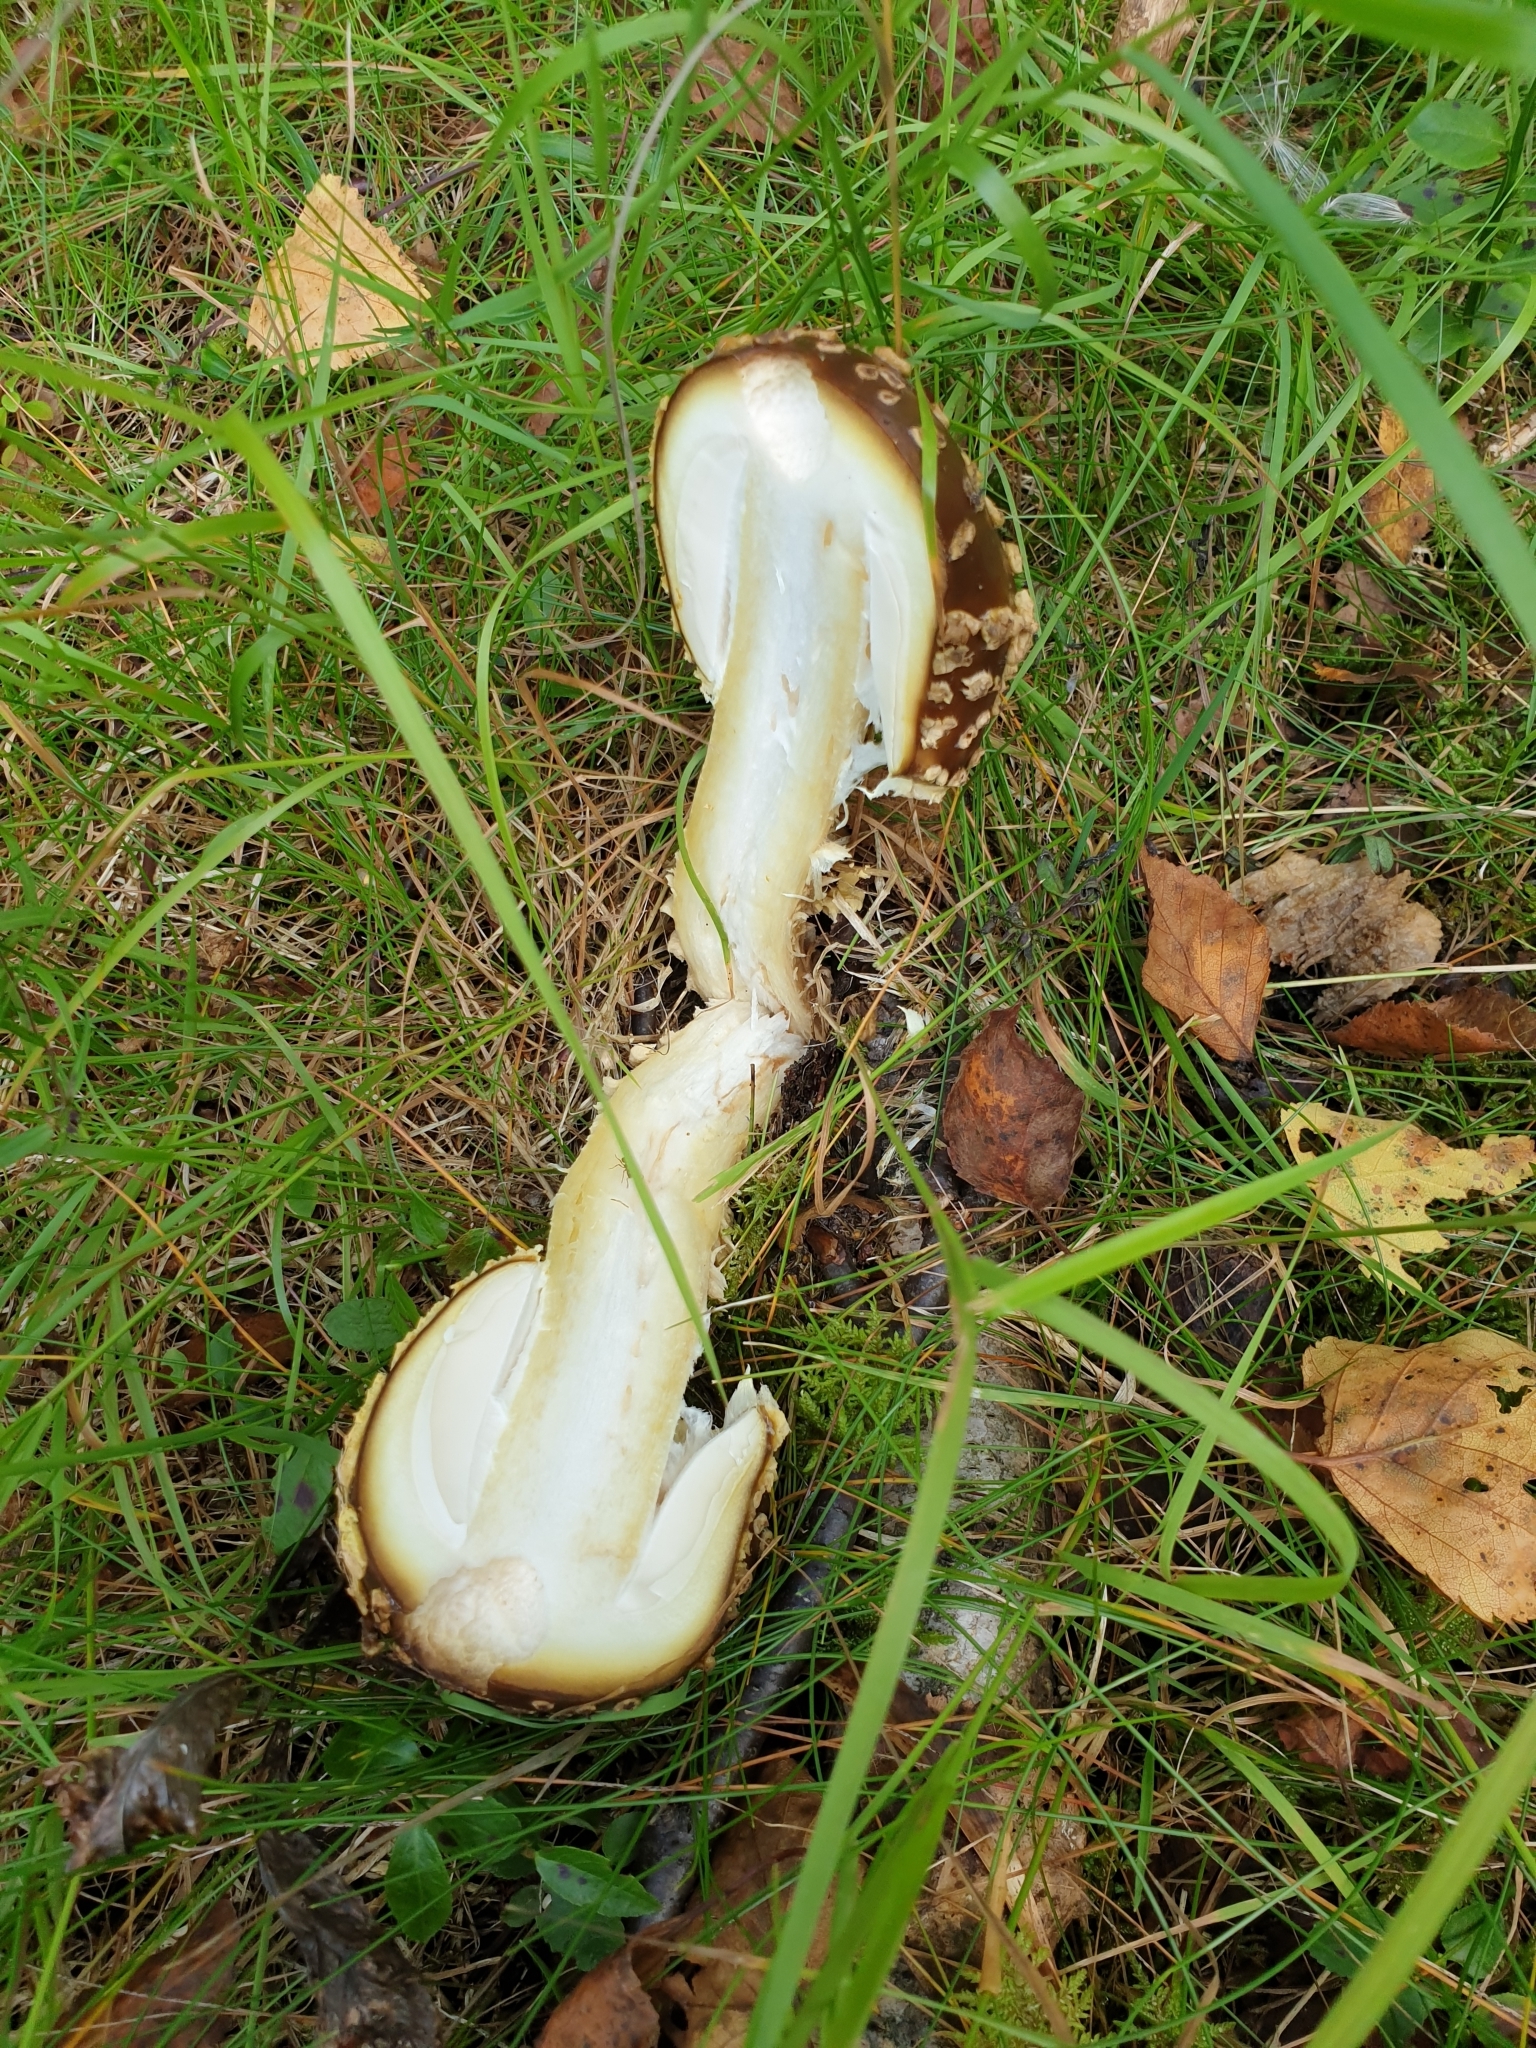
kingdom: Fungi
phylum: Basidiomycota
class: Agaricomycetes
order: Agaricales
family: Amanitaceae
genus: Amanita
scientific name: Amanita regalis
